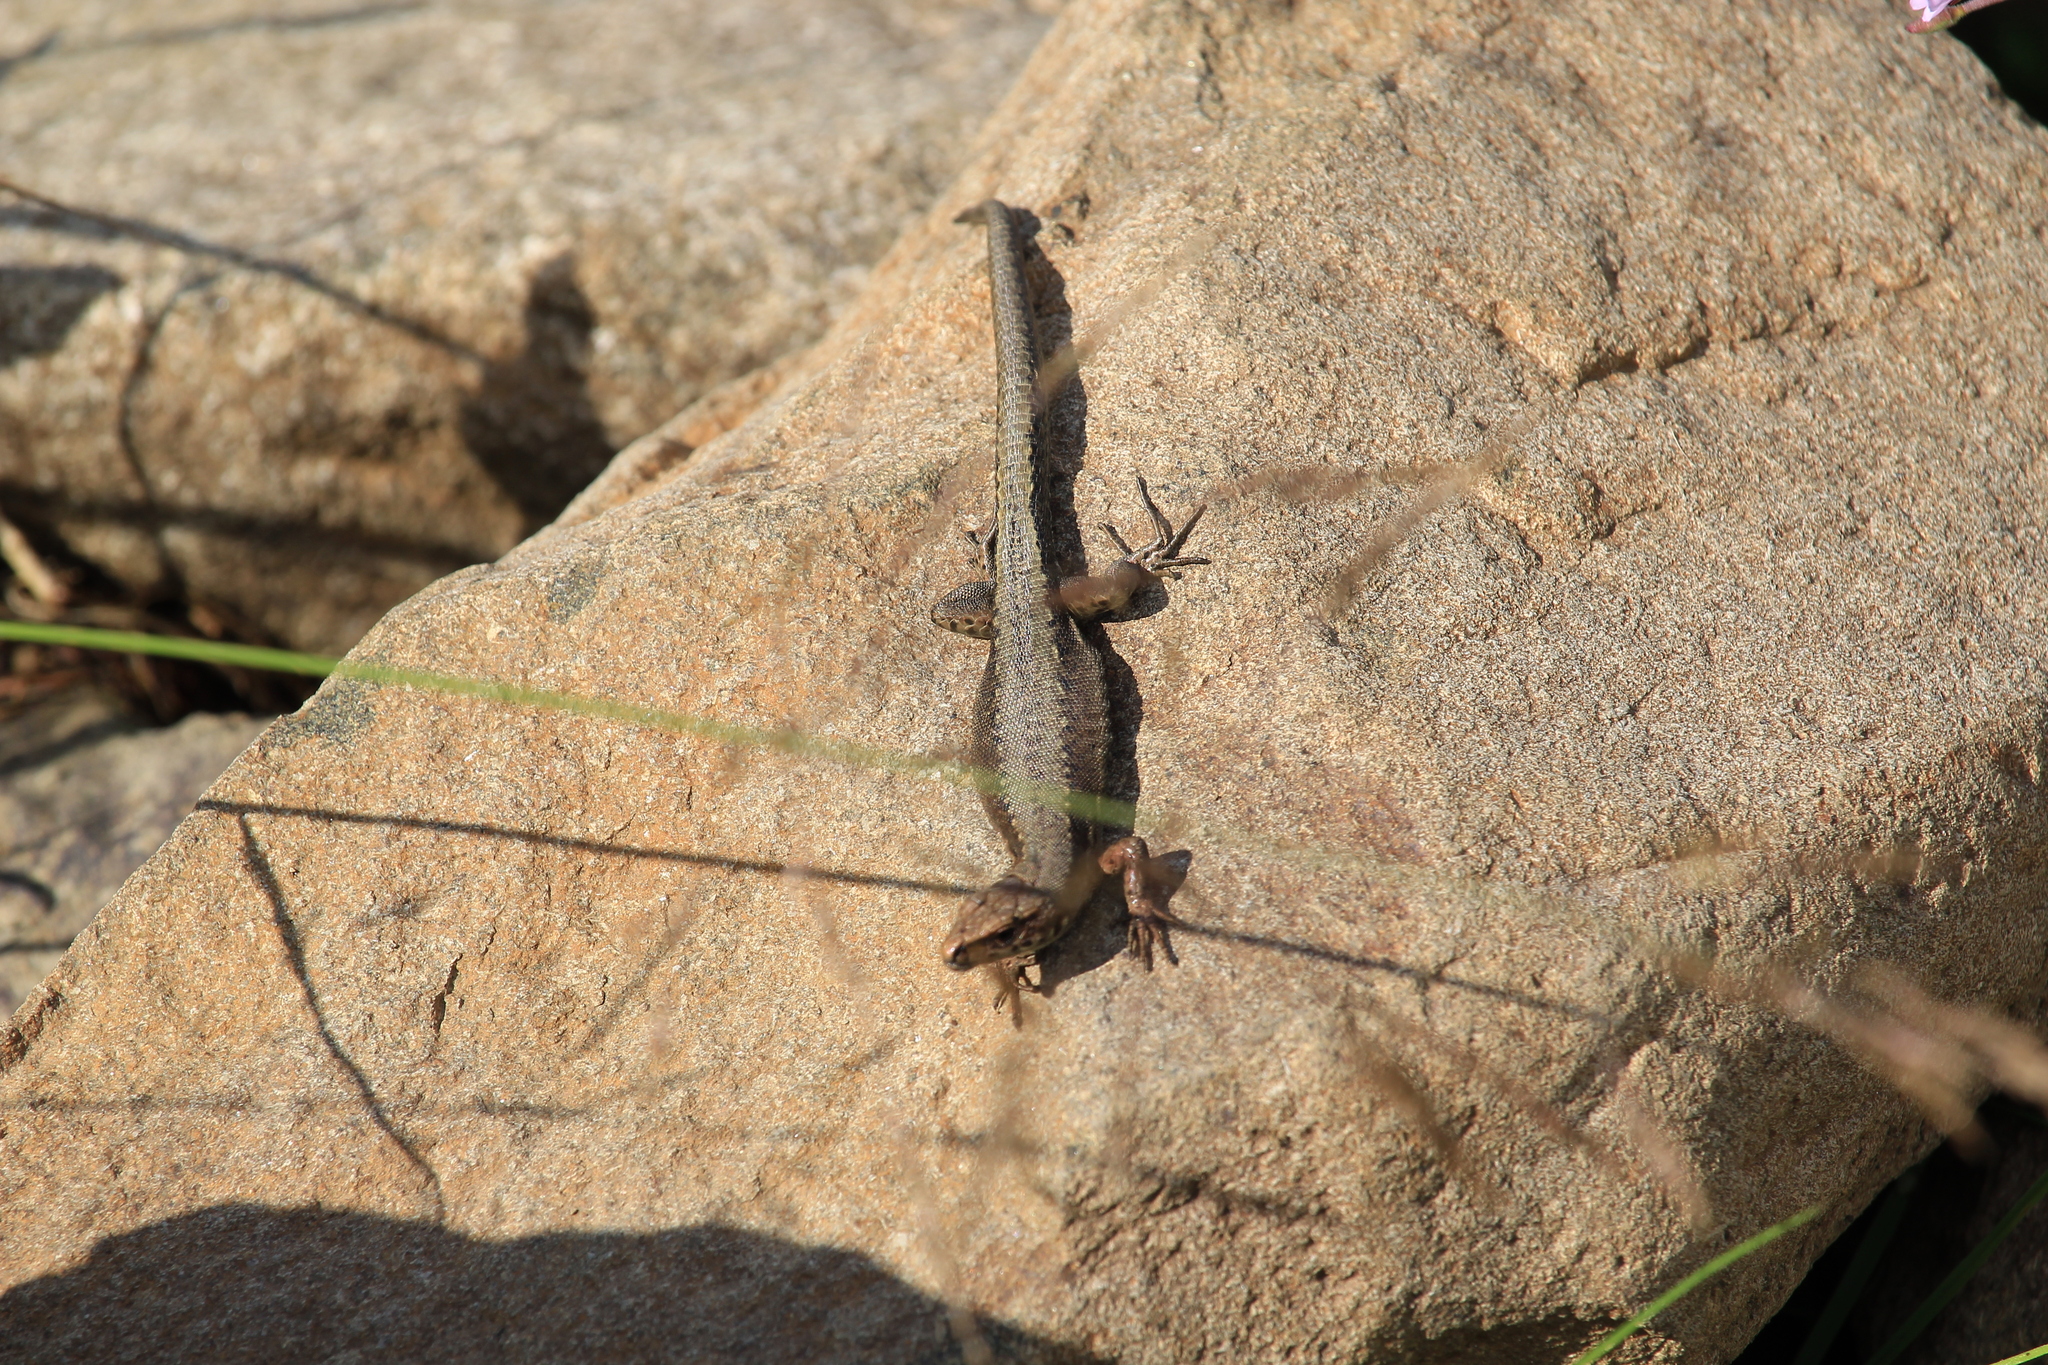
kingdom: Animalia
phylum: Chordata
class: Squamata
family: Lacertidae
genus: Darevskia
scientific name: Darevskia derjugini
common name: Derjugin's lizard
